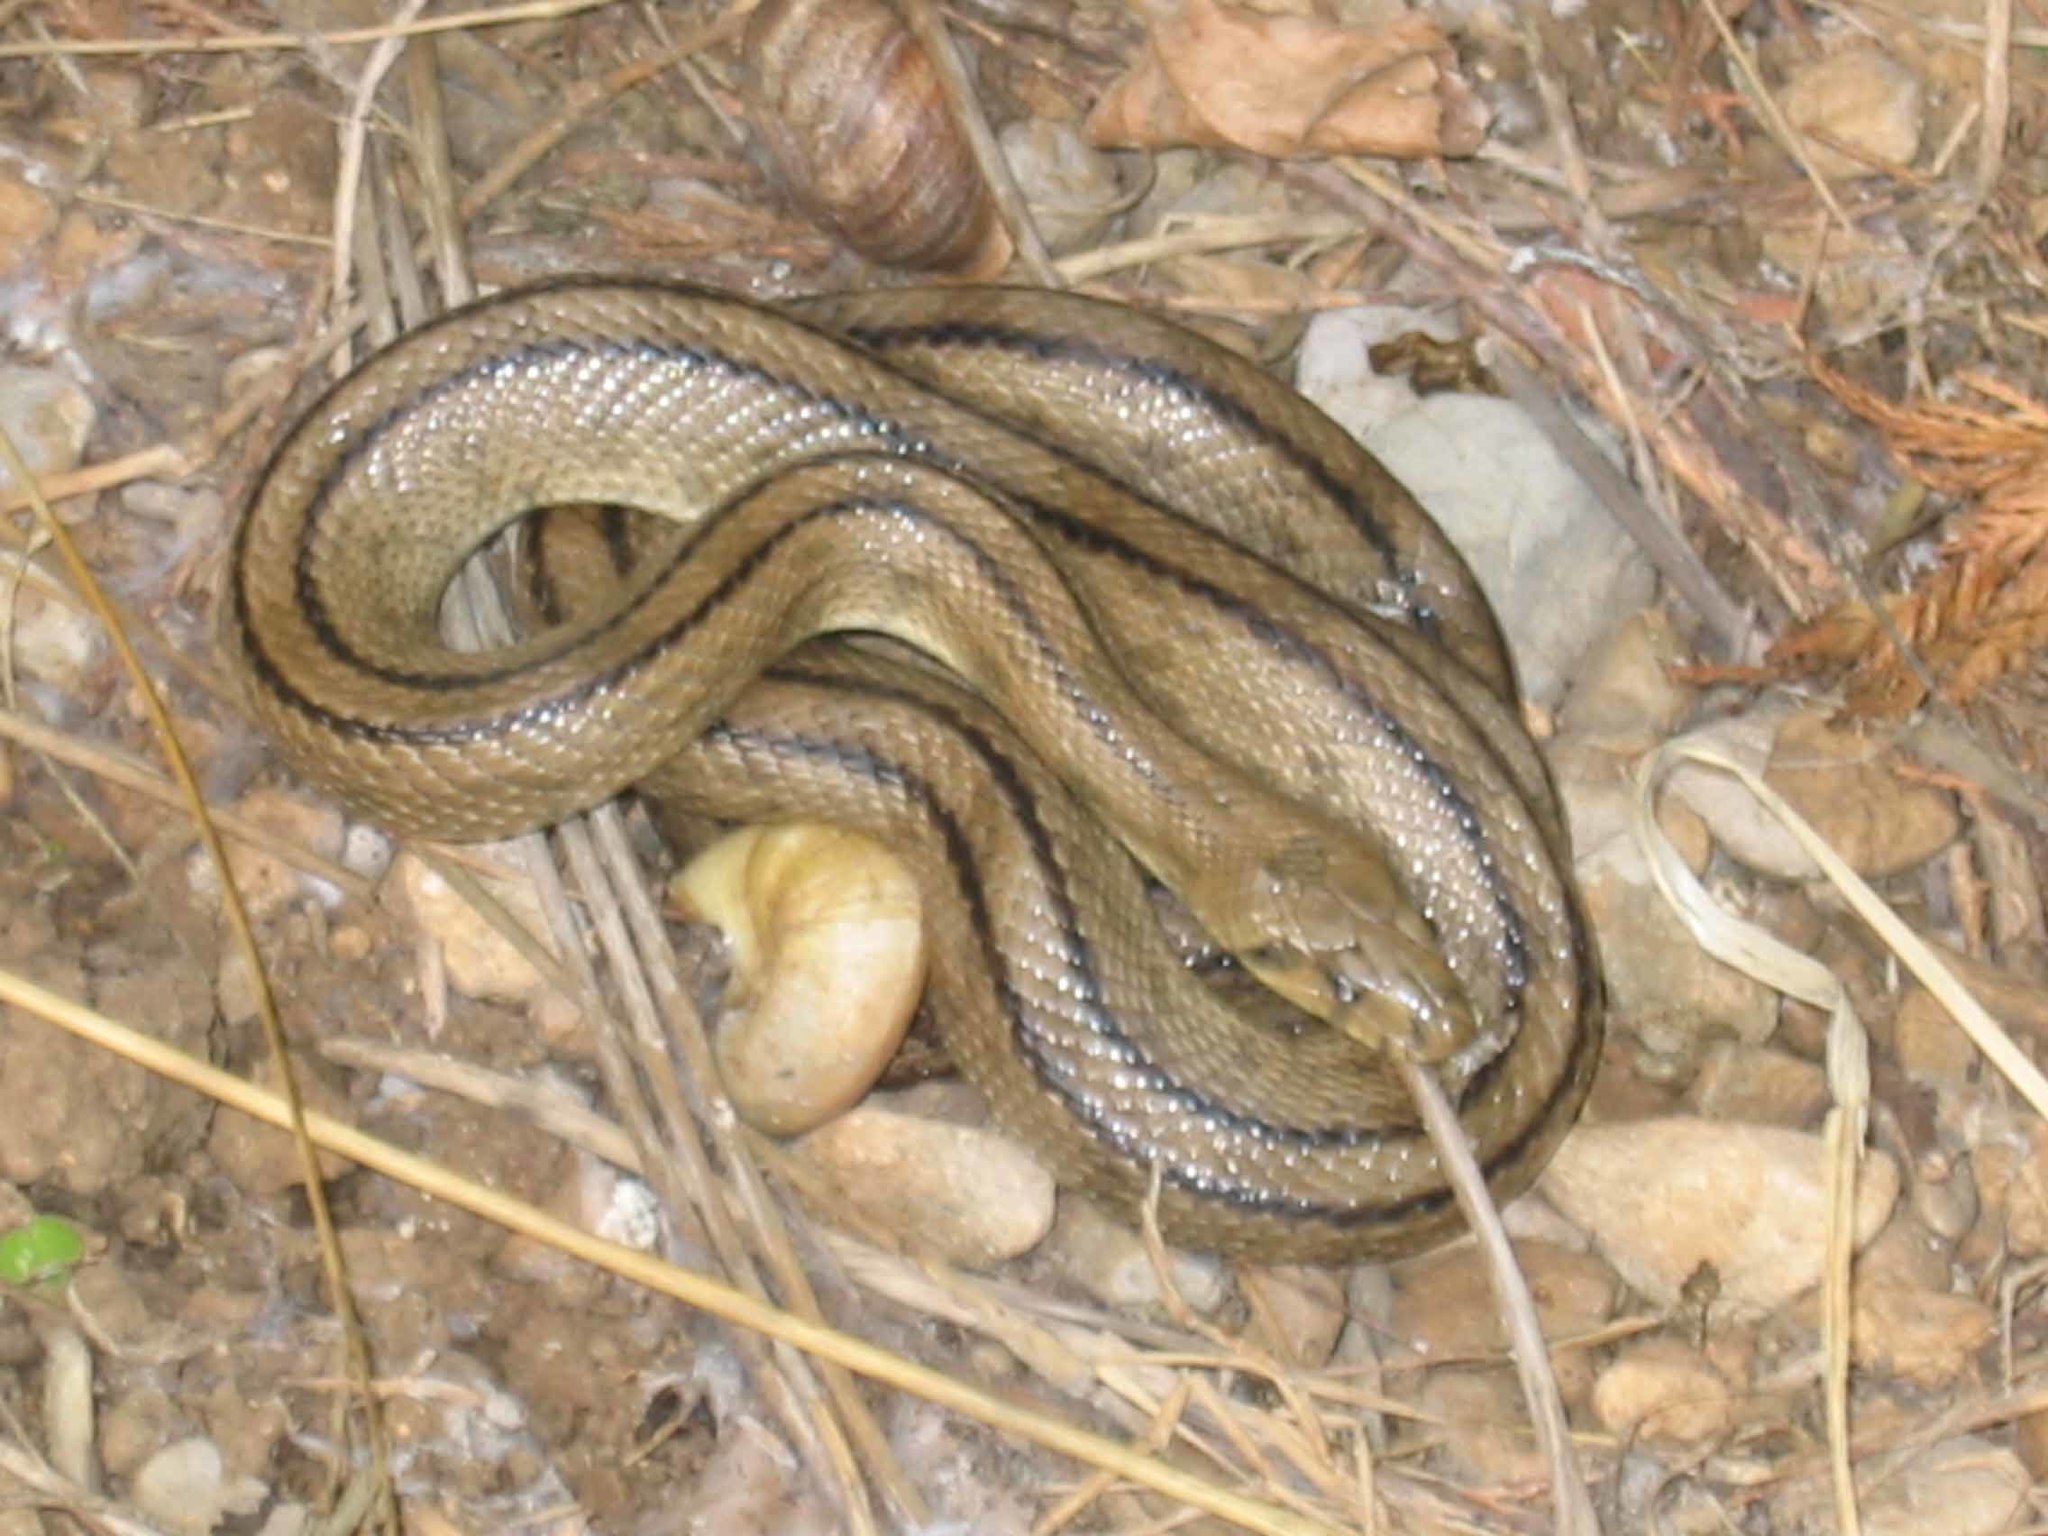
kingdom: Animalia
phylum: Chordata
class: Squamata
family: Colubridae
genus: Zamenis
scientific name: Zamenis scalaris
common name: Ladder snakes
